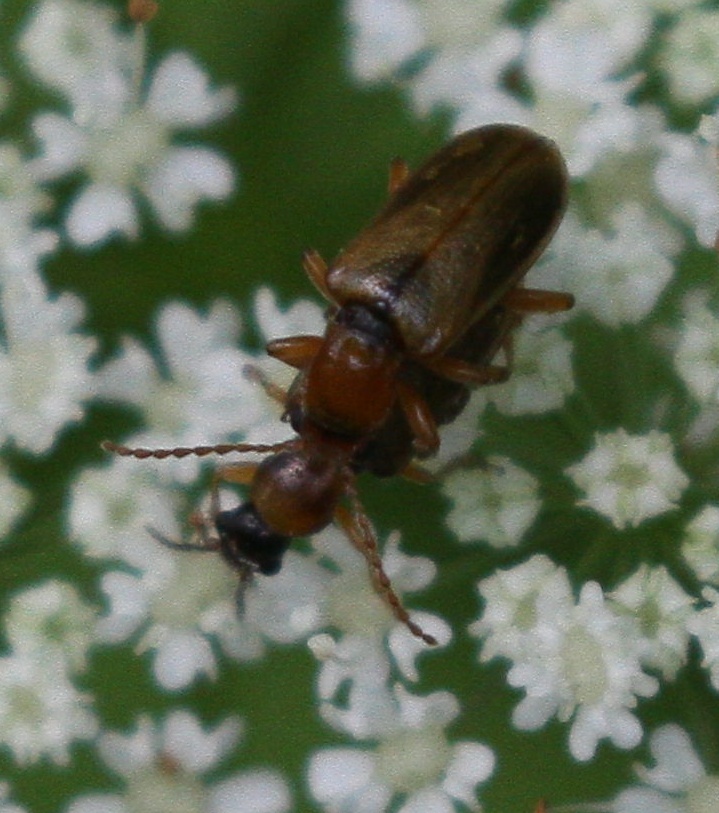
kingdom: Animalia
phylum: Arthropoda
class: Insecta
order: Coleoptera
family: Orsodacnidae
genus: Orsodacne
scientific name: Orsodacne cerasi
